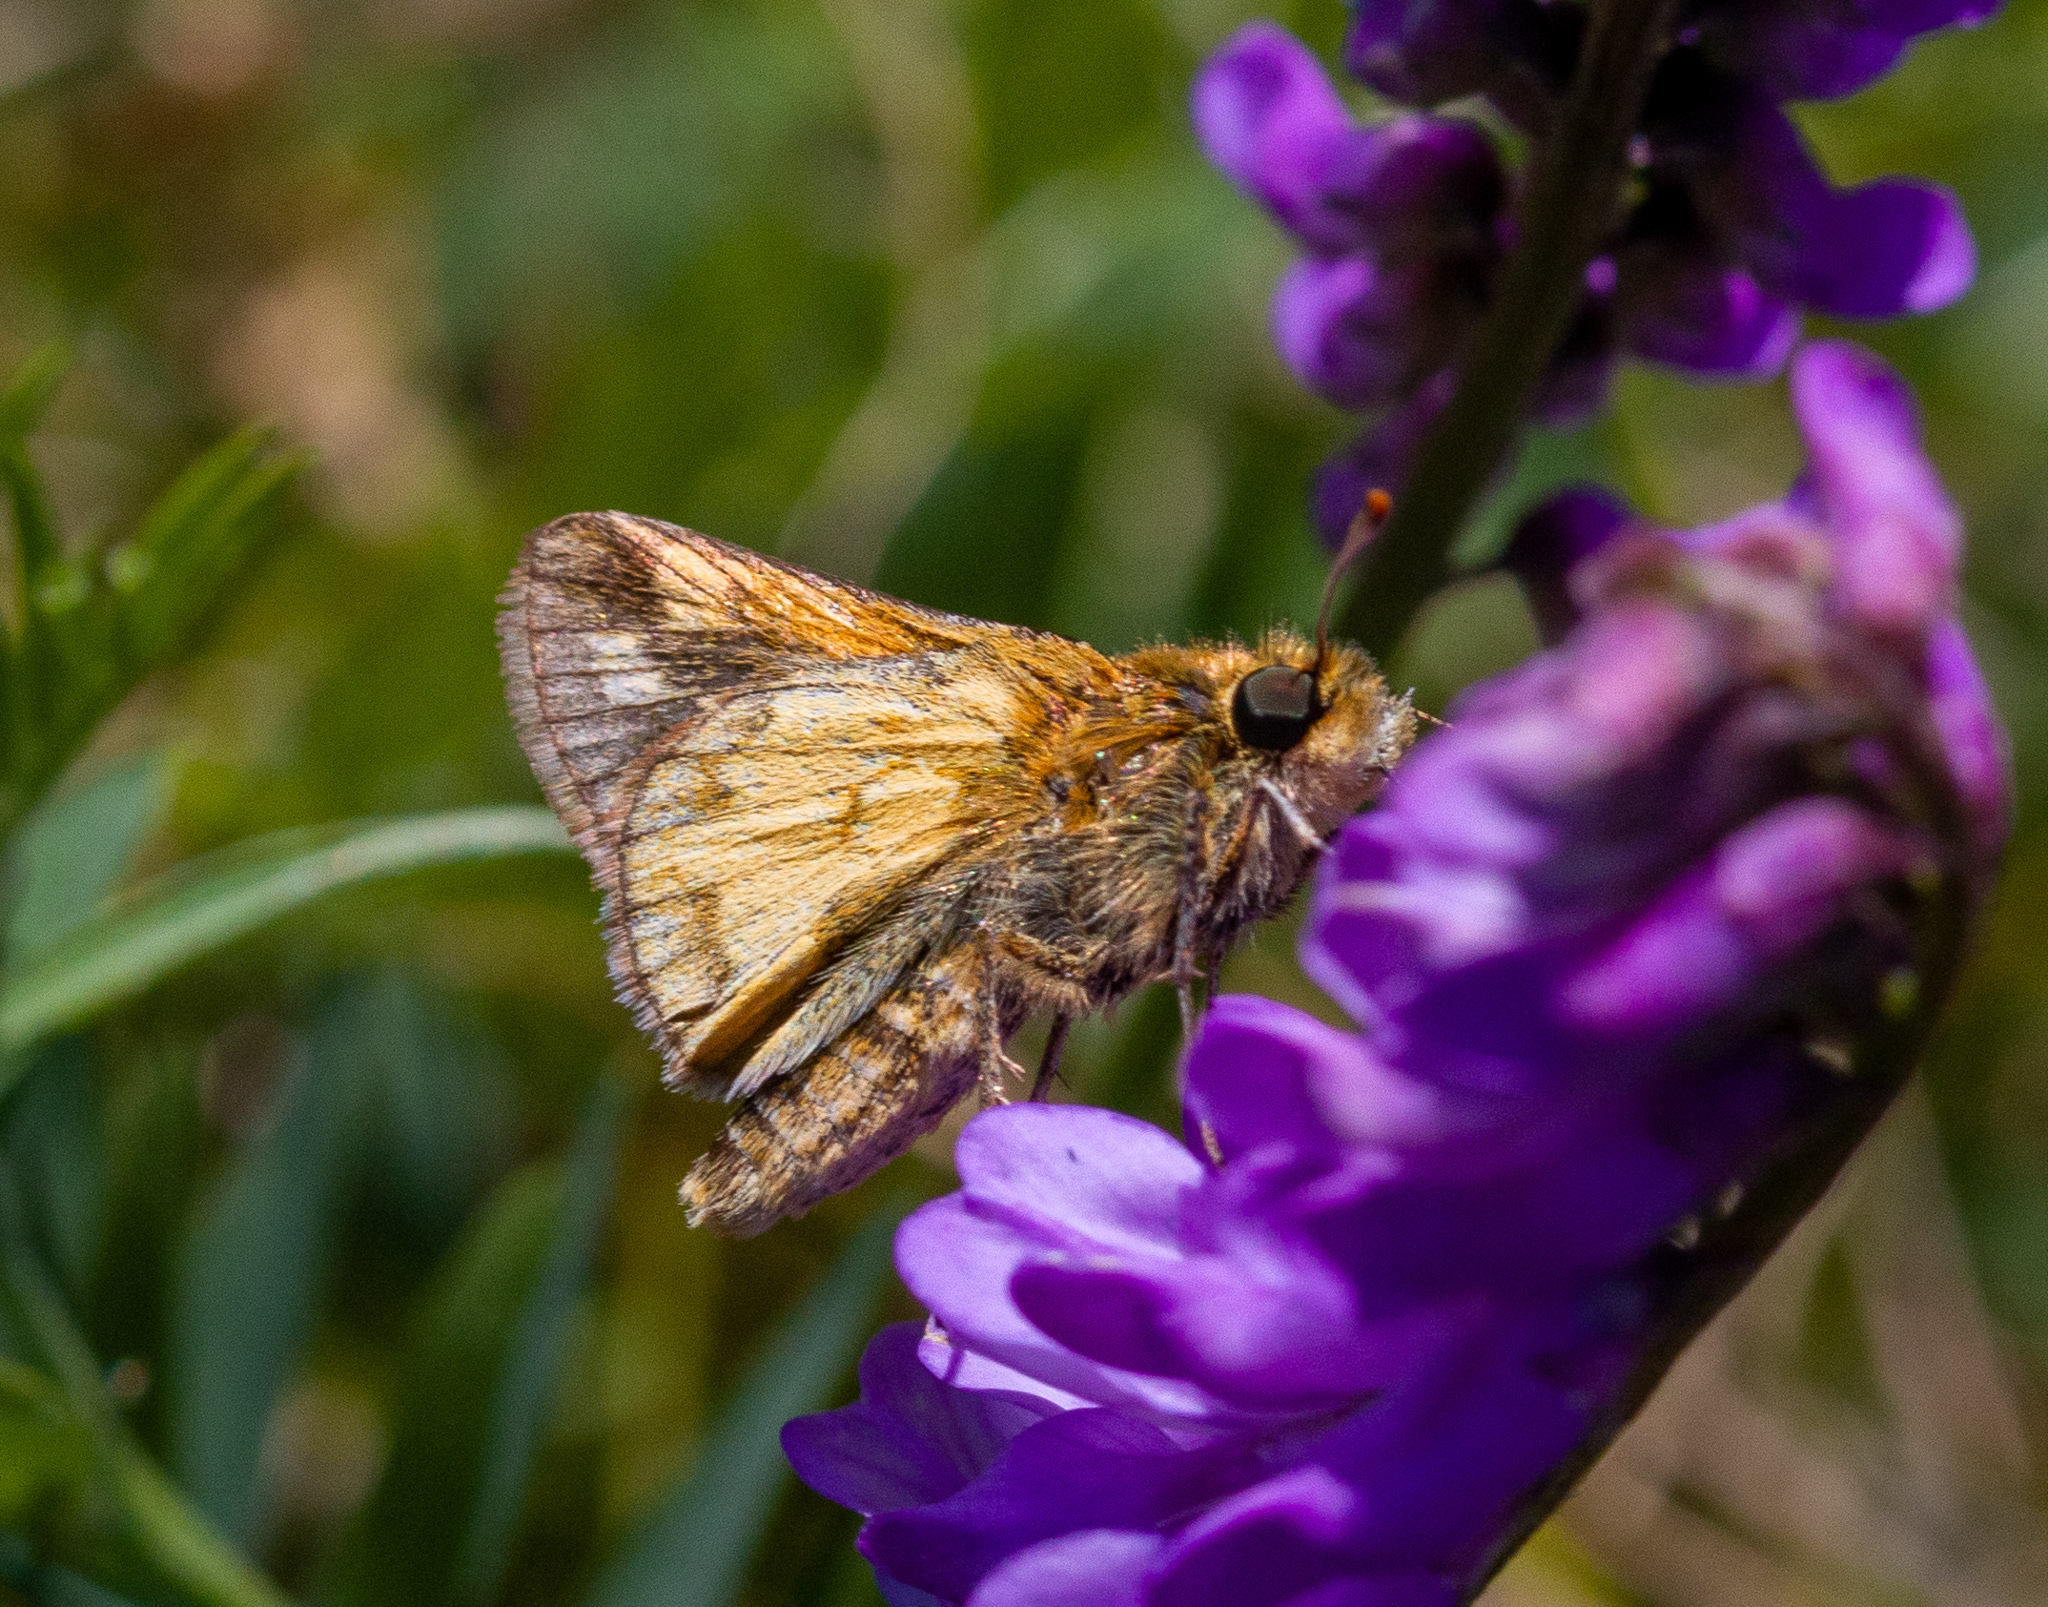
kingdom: Animalia
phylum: Arthropoda
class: Insecta
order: Lepidoptera
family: Hesperiidae
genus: Polites
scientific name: Polites coras
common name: Peck's skipper
